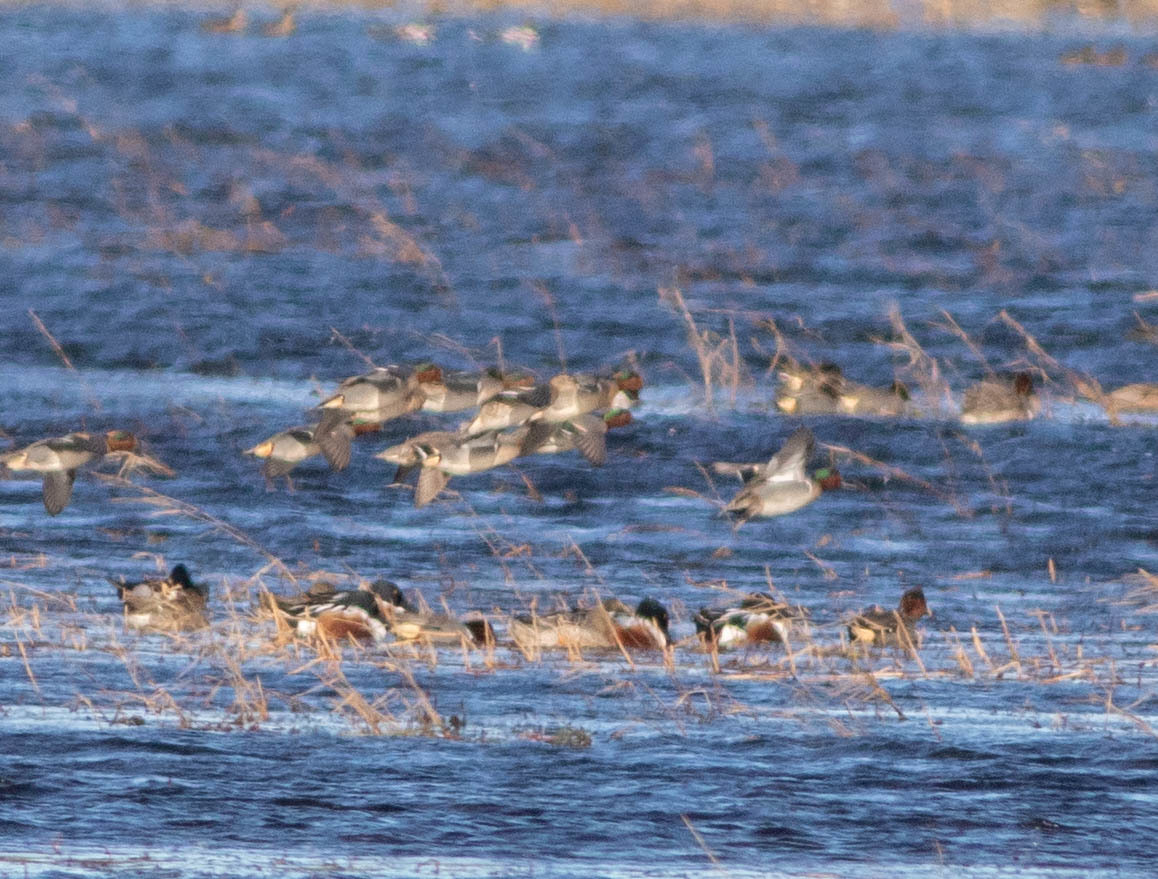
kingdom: Animalia
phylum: Chordata
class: Aves
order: Anseriformes
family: Anatidae
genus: Anas
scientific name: Anas crecca
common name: Eurasian teal
